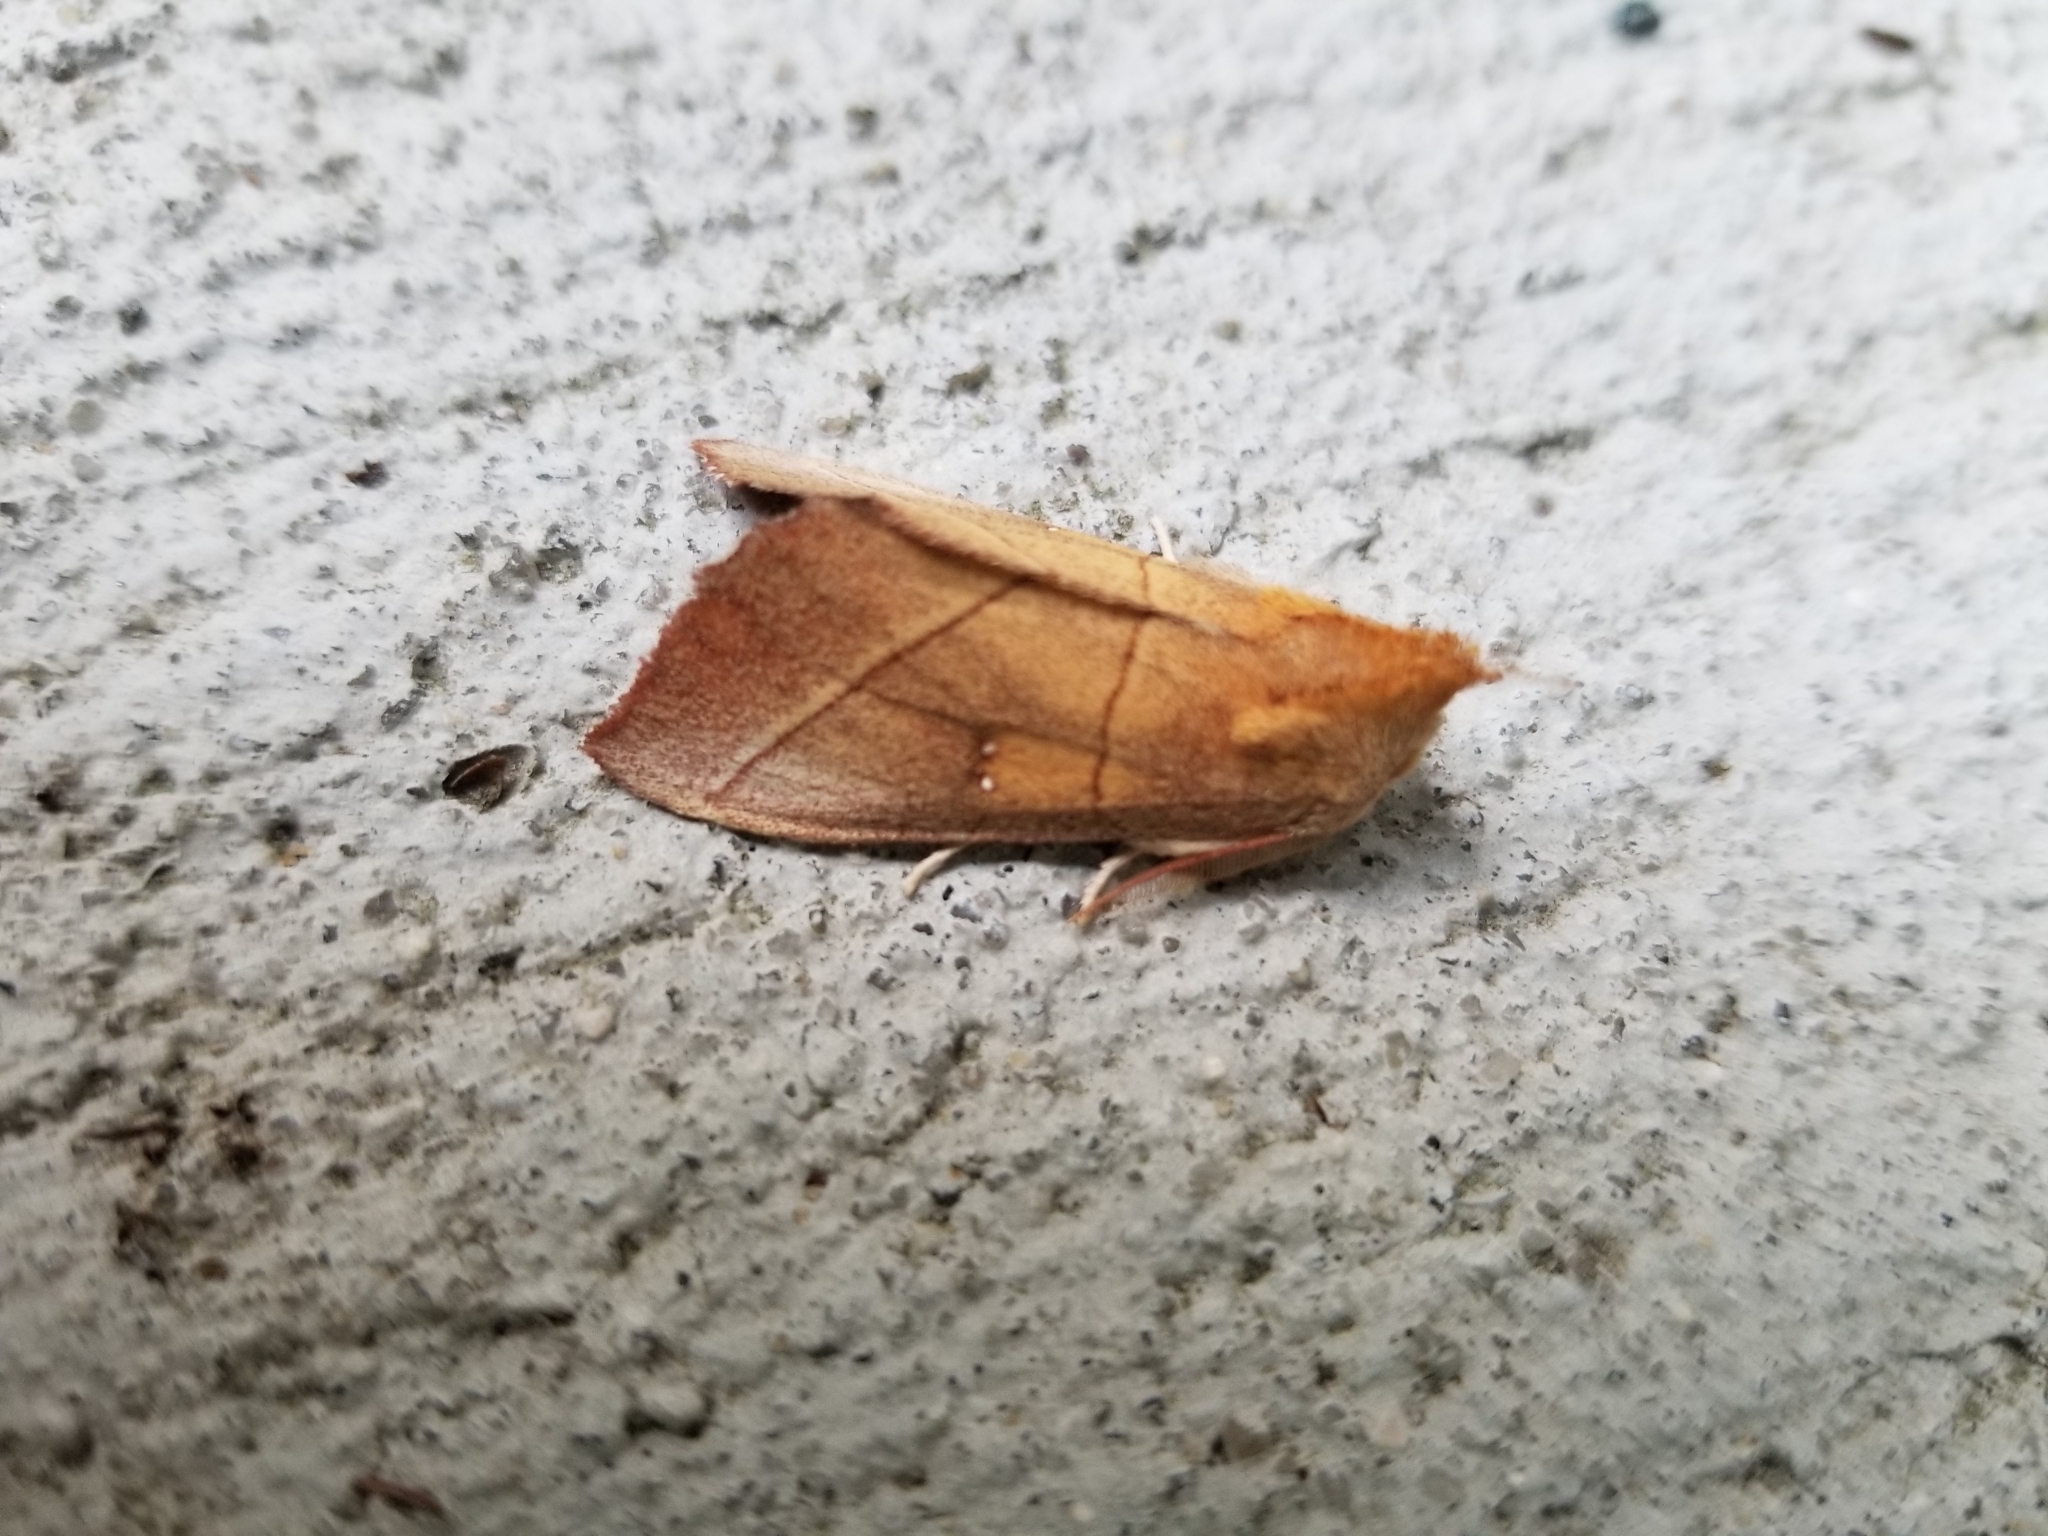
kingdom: Animalia
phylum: Arthropoda
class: Insecta
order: Lepidoptera
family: Notodontidae
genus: Nadata
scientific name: Nadata gibbosa
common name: White-dotted prominent
